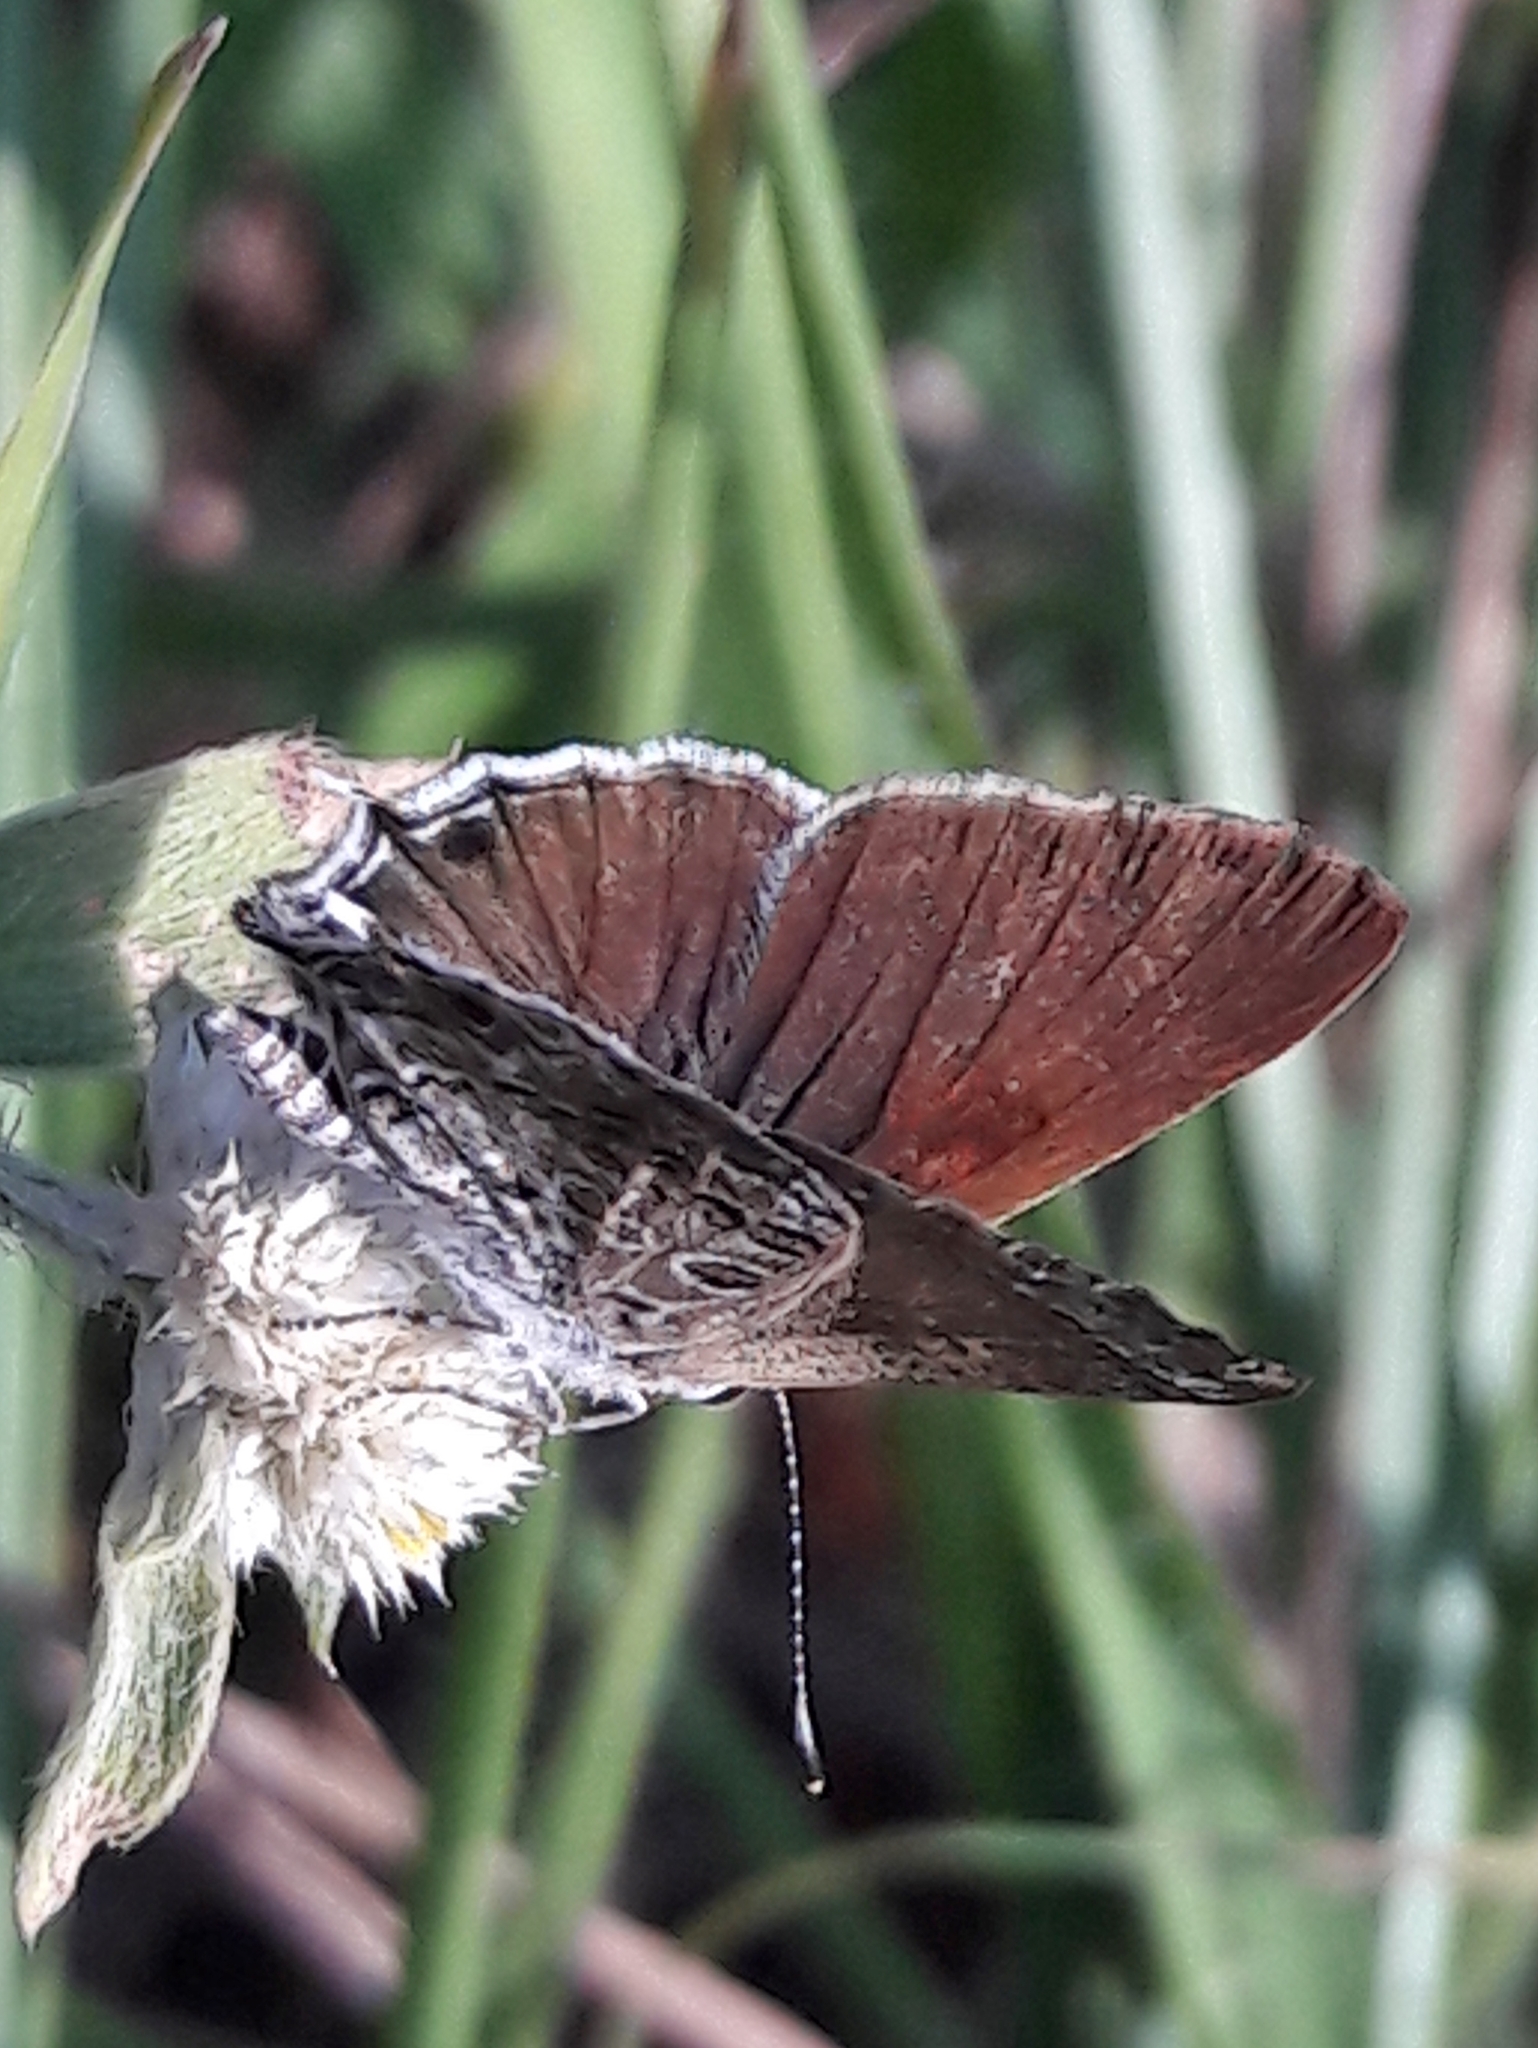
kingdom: Animalia
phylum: Arthropoda
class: Insecta
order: Lepidoptera
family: Lycaenidae
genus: Strymon
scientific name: Strymon astiocha
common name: Gray-spotted scrub-hairstreak
